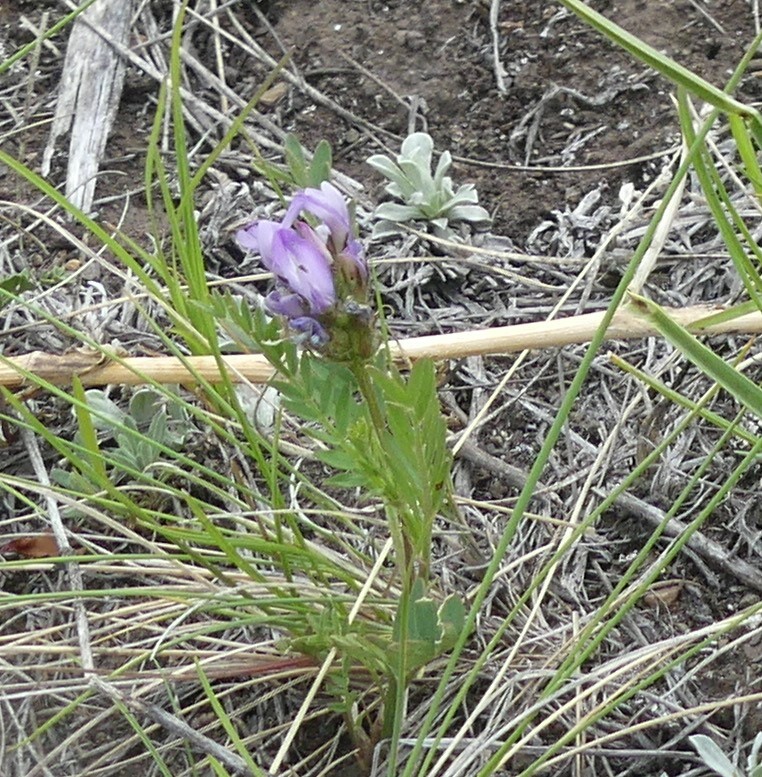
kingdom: Plantae
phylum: Tracheophyta
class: Magnoliopsida
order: Fabales
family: Fabaceae
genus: Astragalus
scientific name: Astragalus agrestis
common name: Field milk-vetch
